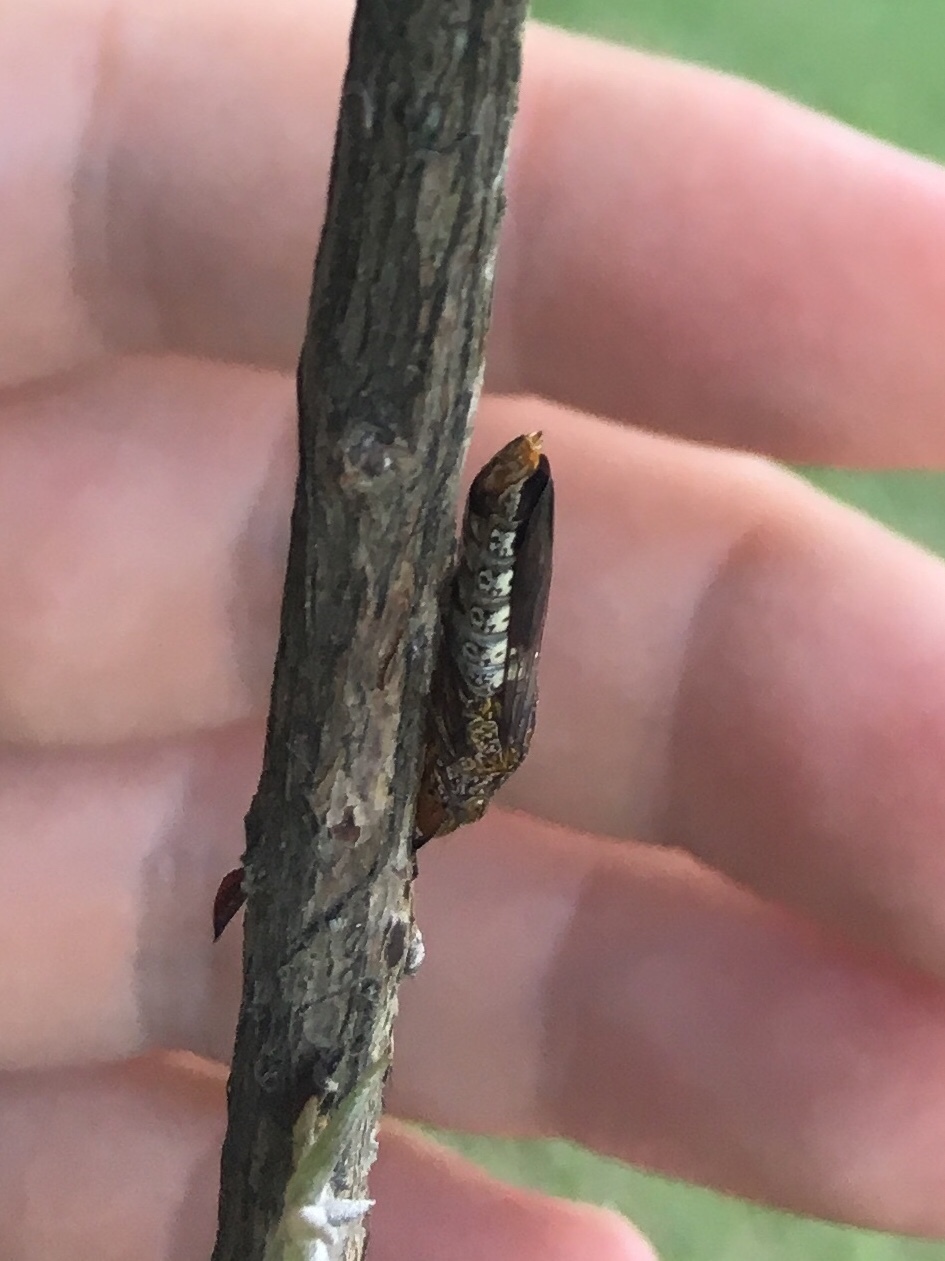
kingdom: Animalia
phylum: Arthropoda
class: Insecta
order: Hemiptera
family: Cicadellidae
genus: Homalodisca
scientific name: Homalodisca vitripennis
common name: Glassy-winged sharpshooter
